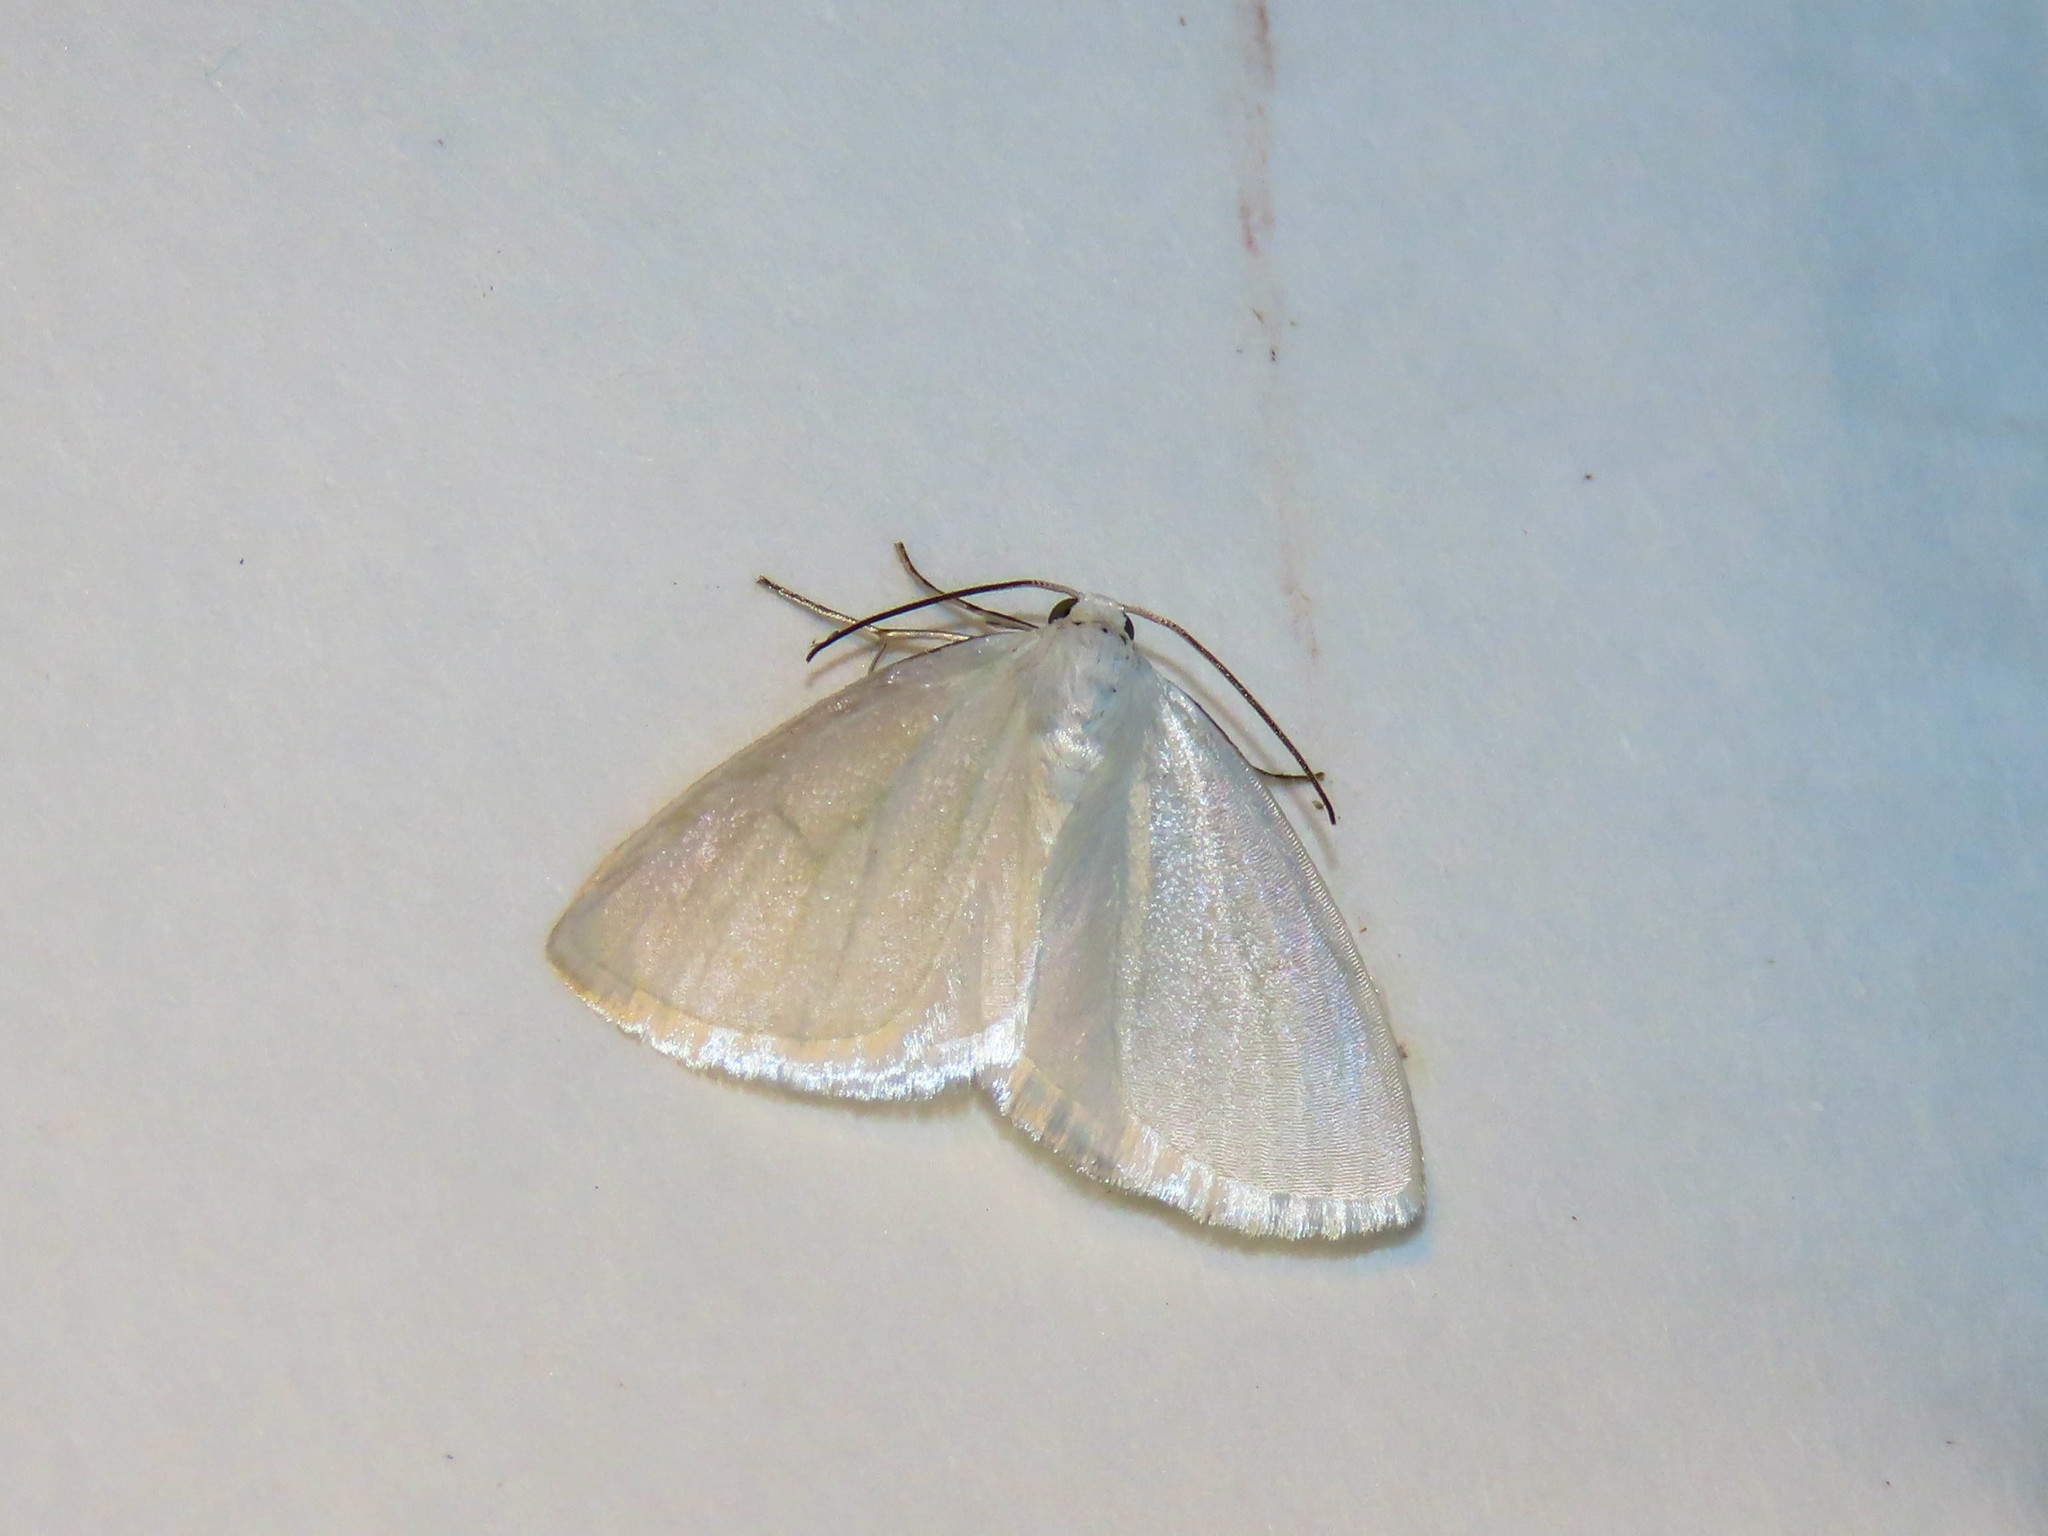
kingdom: Animalia
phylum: Arthropoda
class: Insecta
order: Lepidoptera
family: Geometridae
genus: Lomographa
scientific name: Lomographa vestaliata
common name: White spring moth
